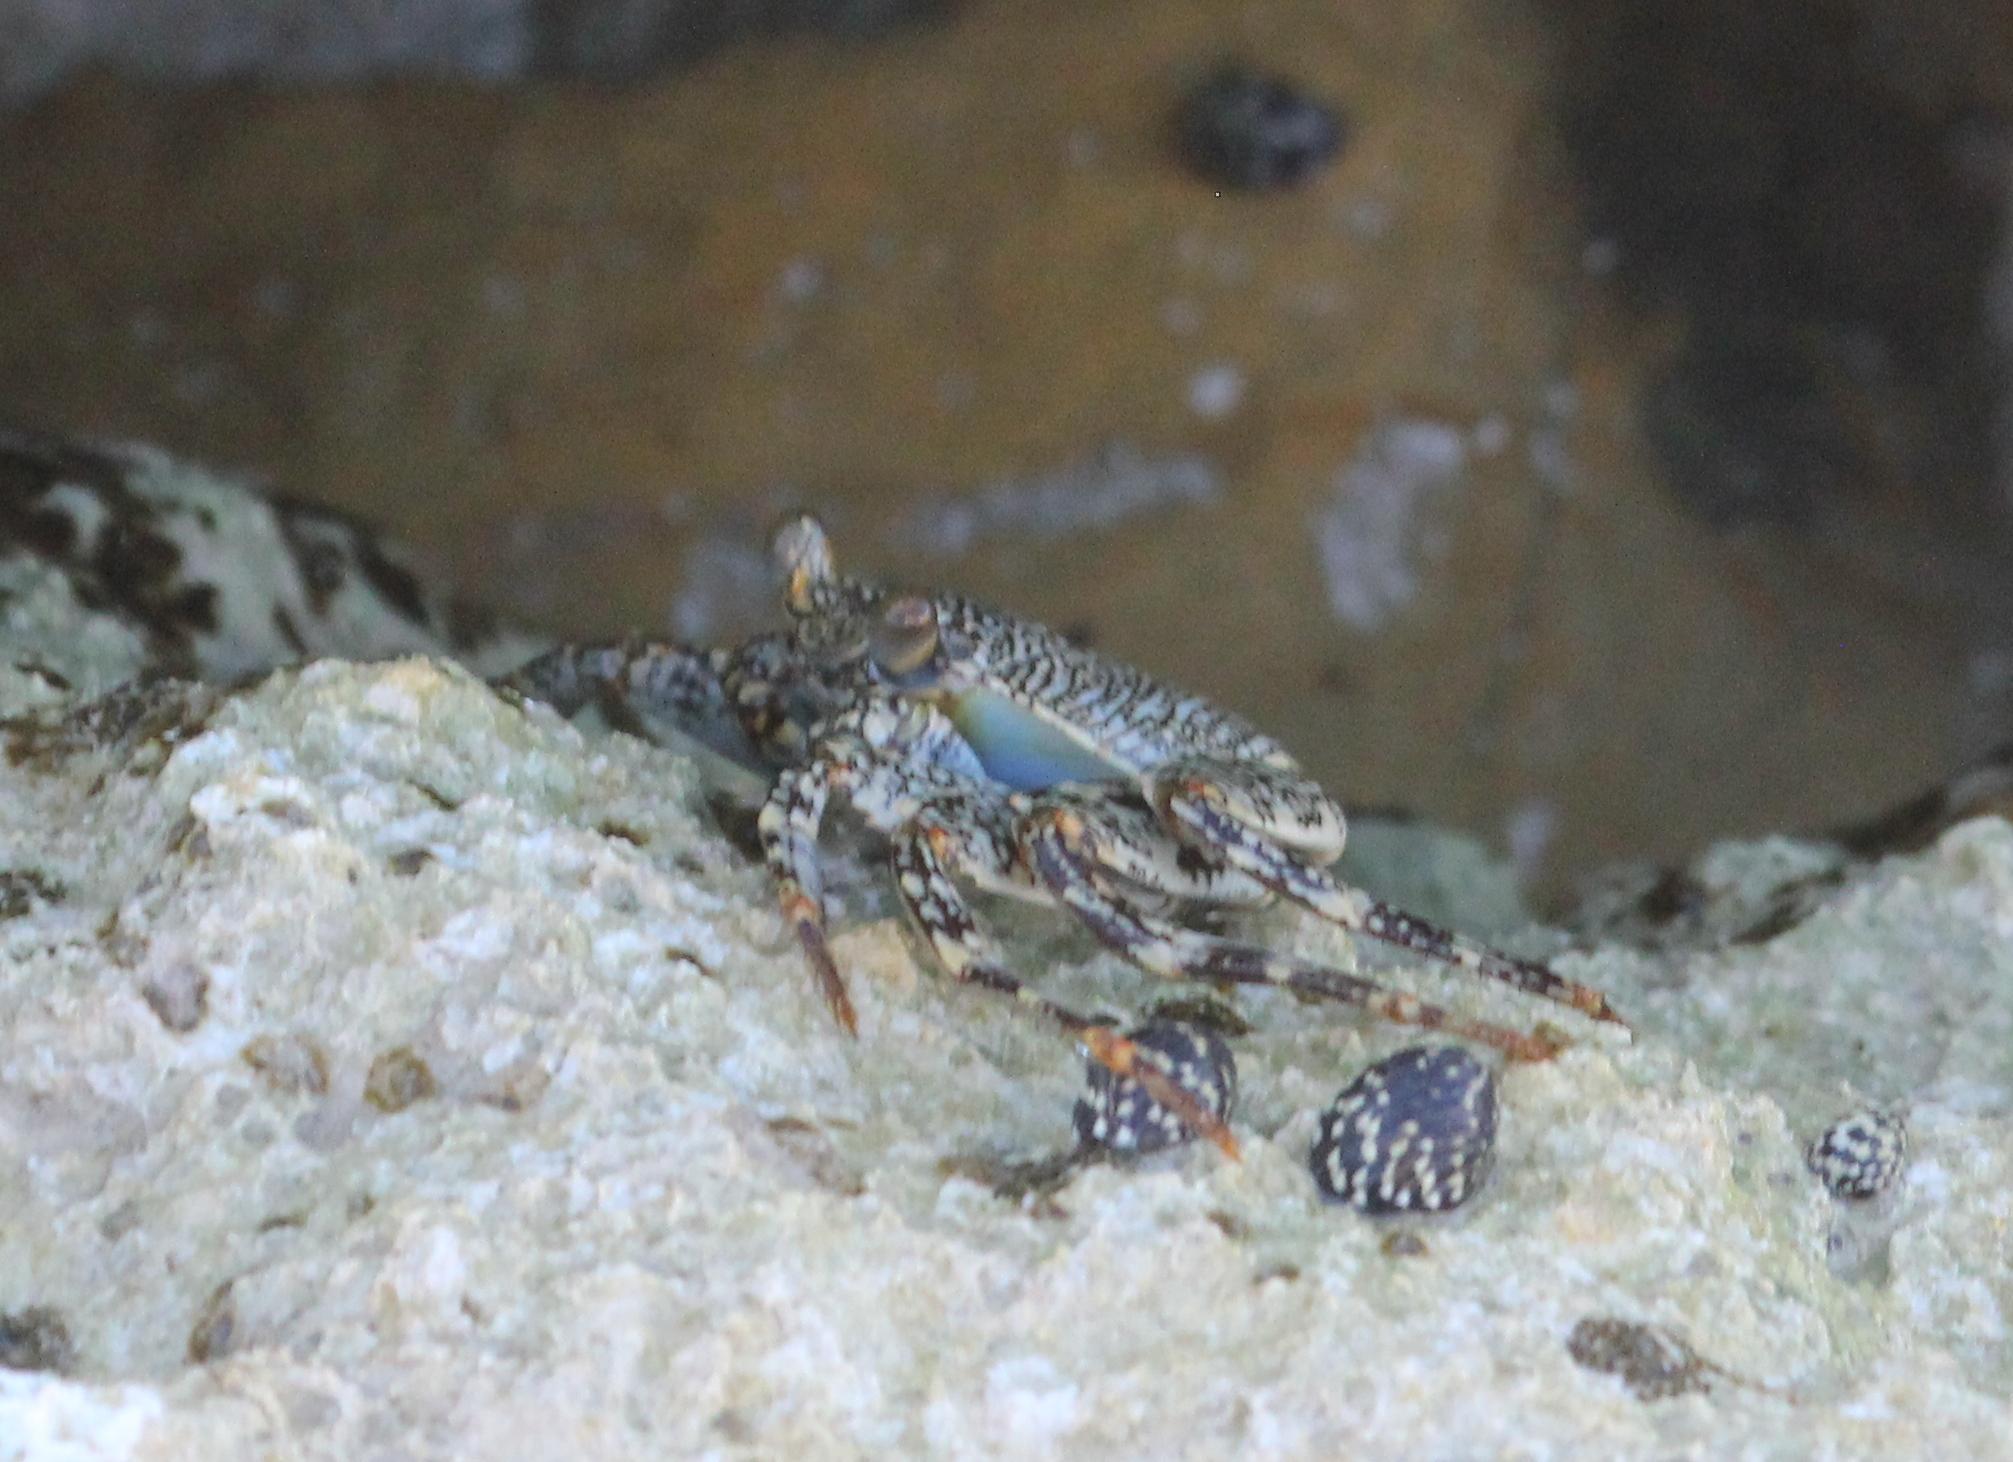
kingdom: Animalia
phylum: Arthropoda
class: Malacostraca
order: Decapoda
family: Grapsidae
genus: Grapsus
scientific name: Grapsus grapsus
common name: Sally lightfoot
